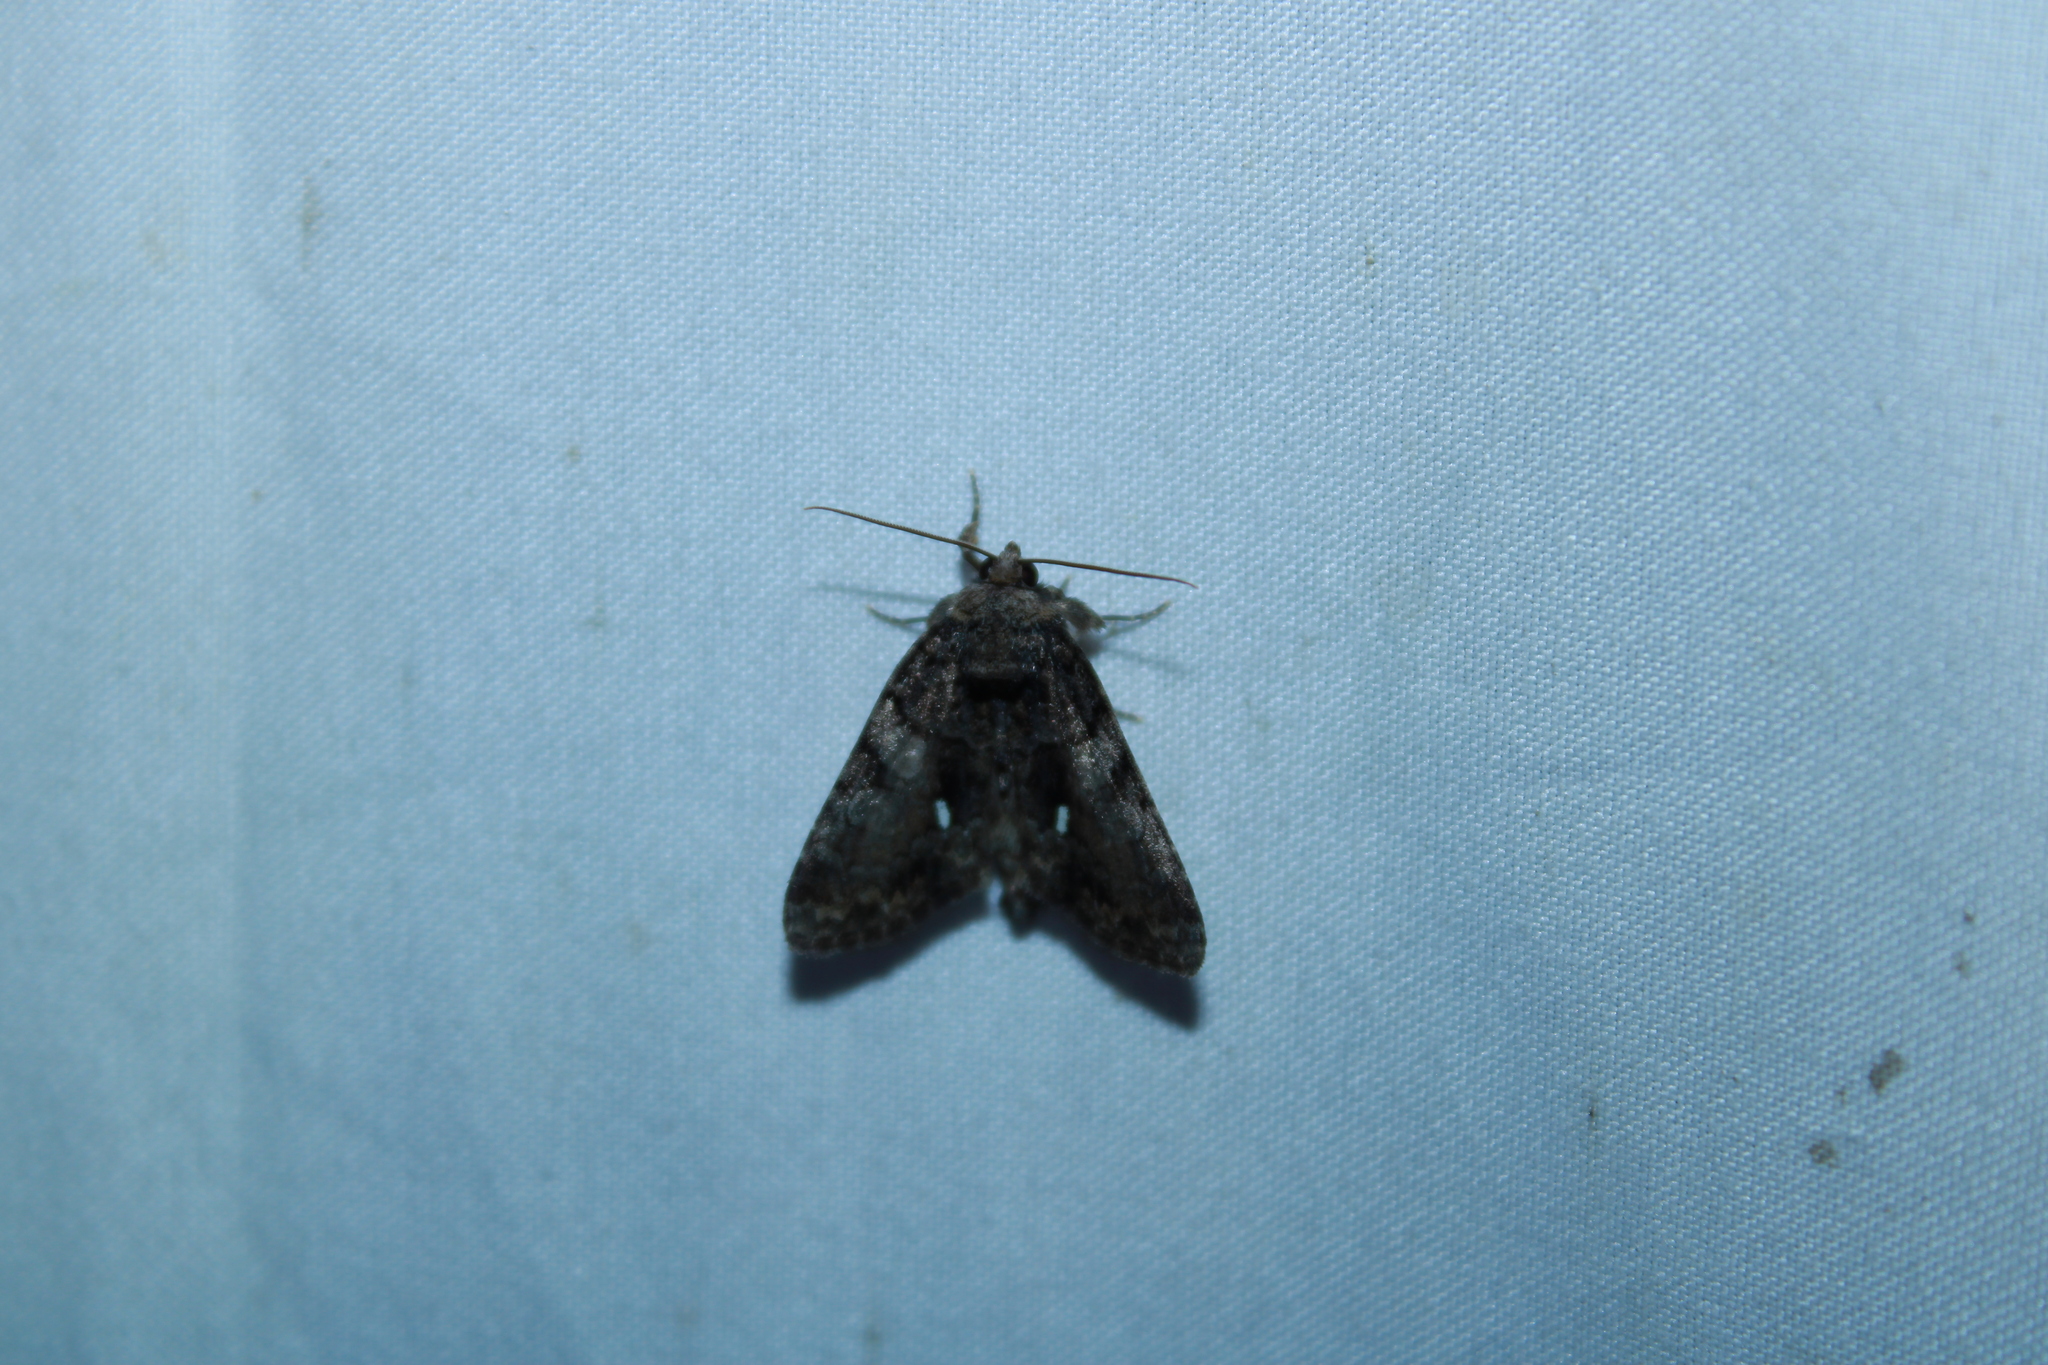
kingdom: Animalia
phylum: Arthropoda
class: Insecta
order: Lepidoptera
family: Noctuidae
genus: Chytonix
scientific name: Chytonix palliatricula
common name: Cloaked marvel
